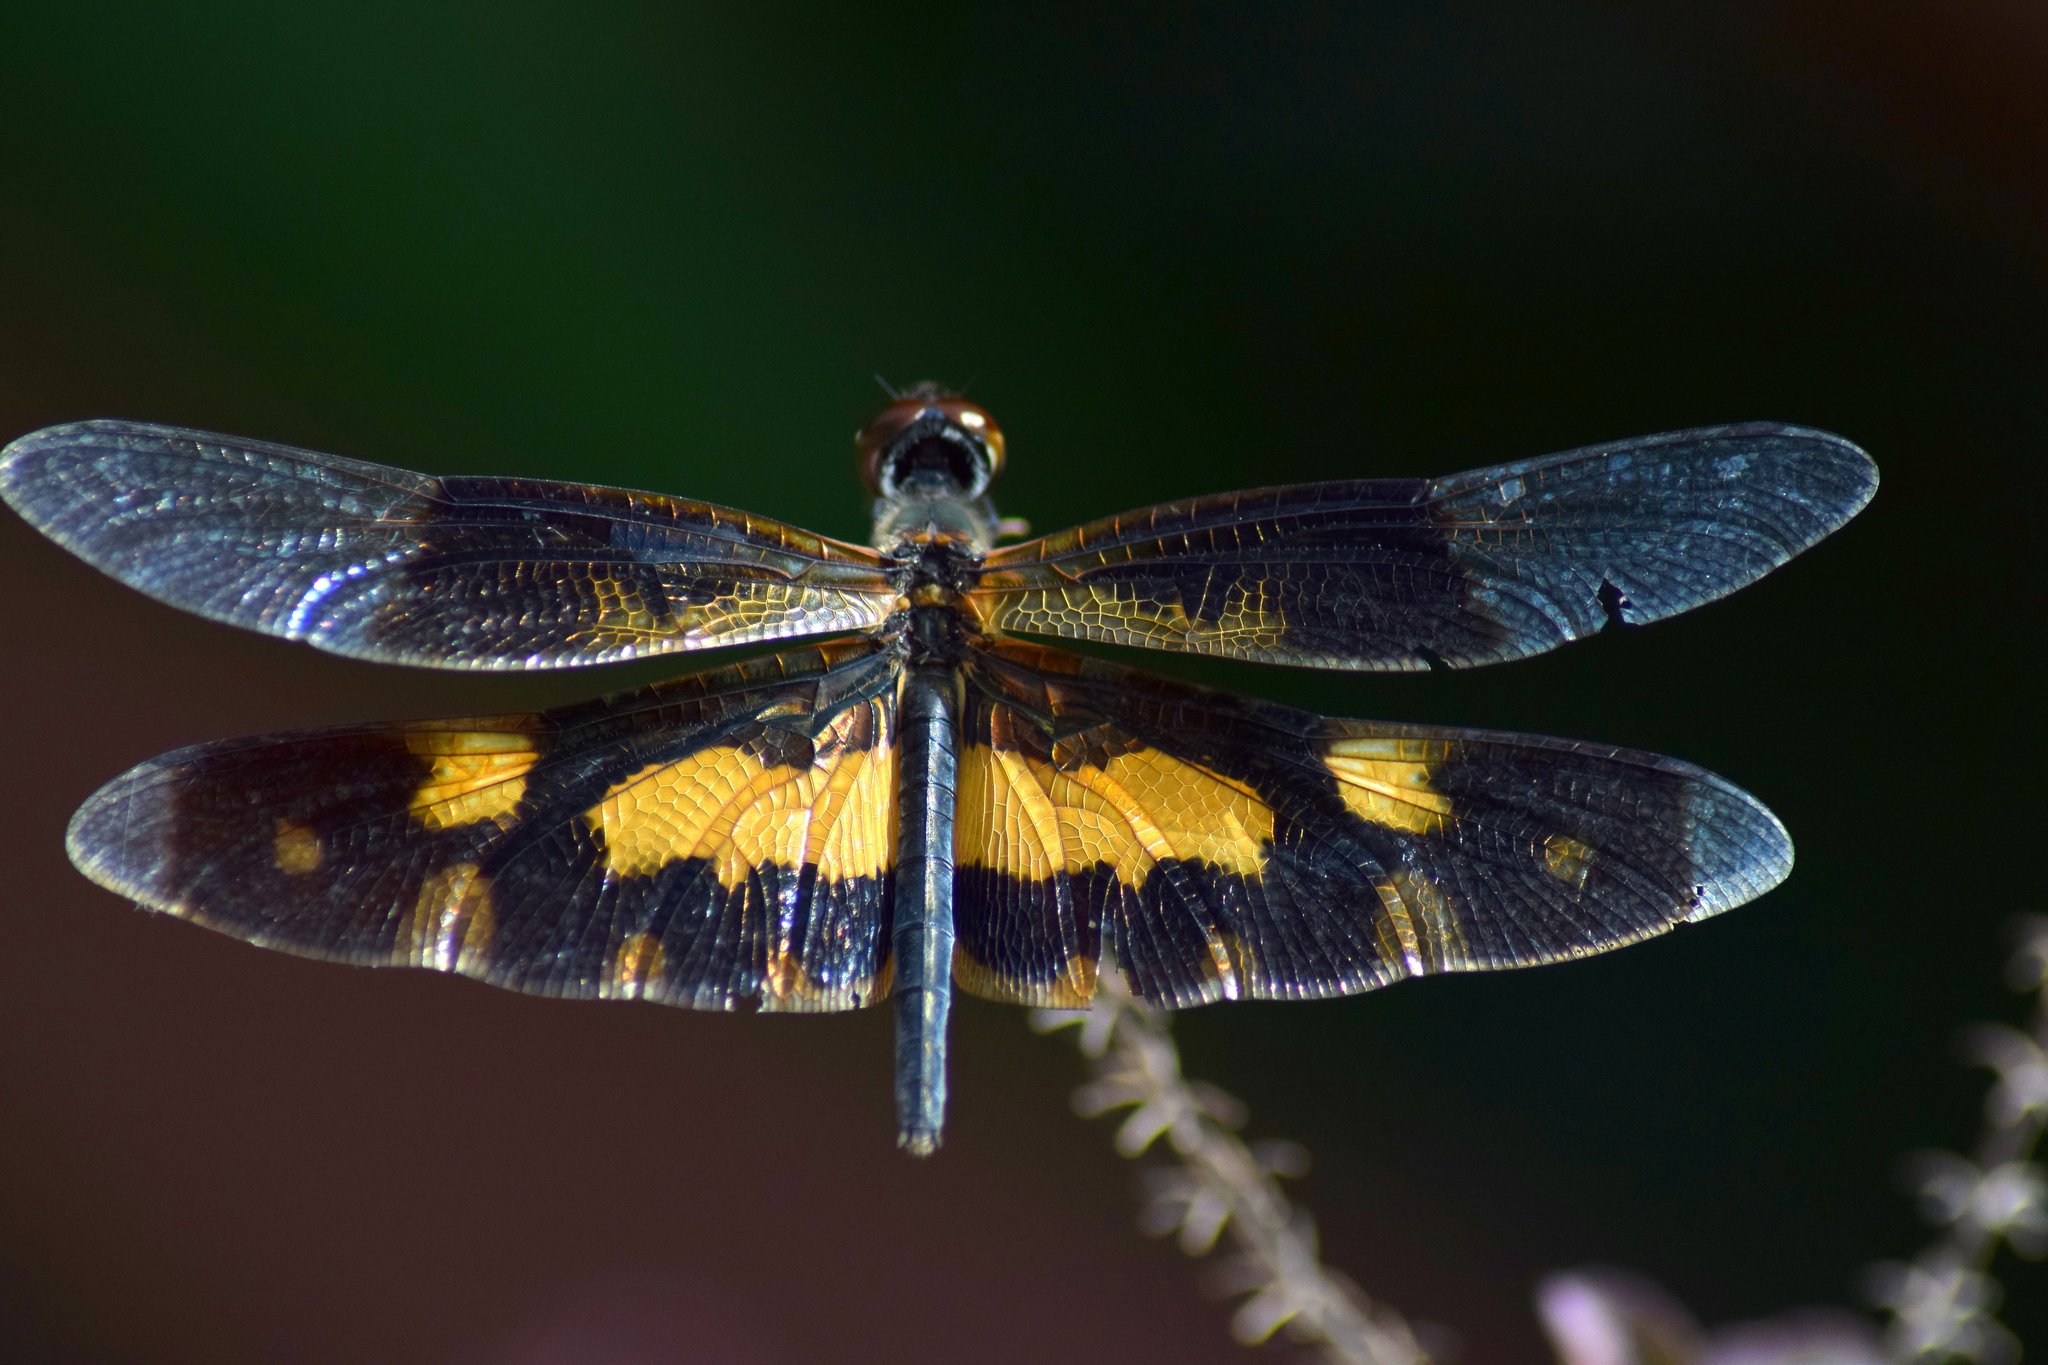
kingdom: Animalia
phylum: Arthropoda
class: Insecta
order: Odonata
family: Libellulidae
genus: Rhyothemis
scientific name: Rhyothemis variegata
